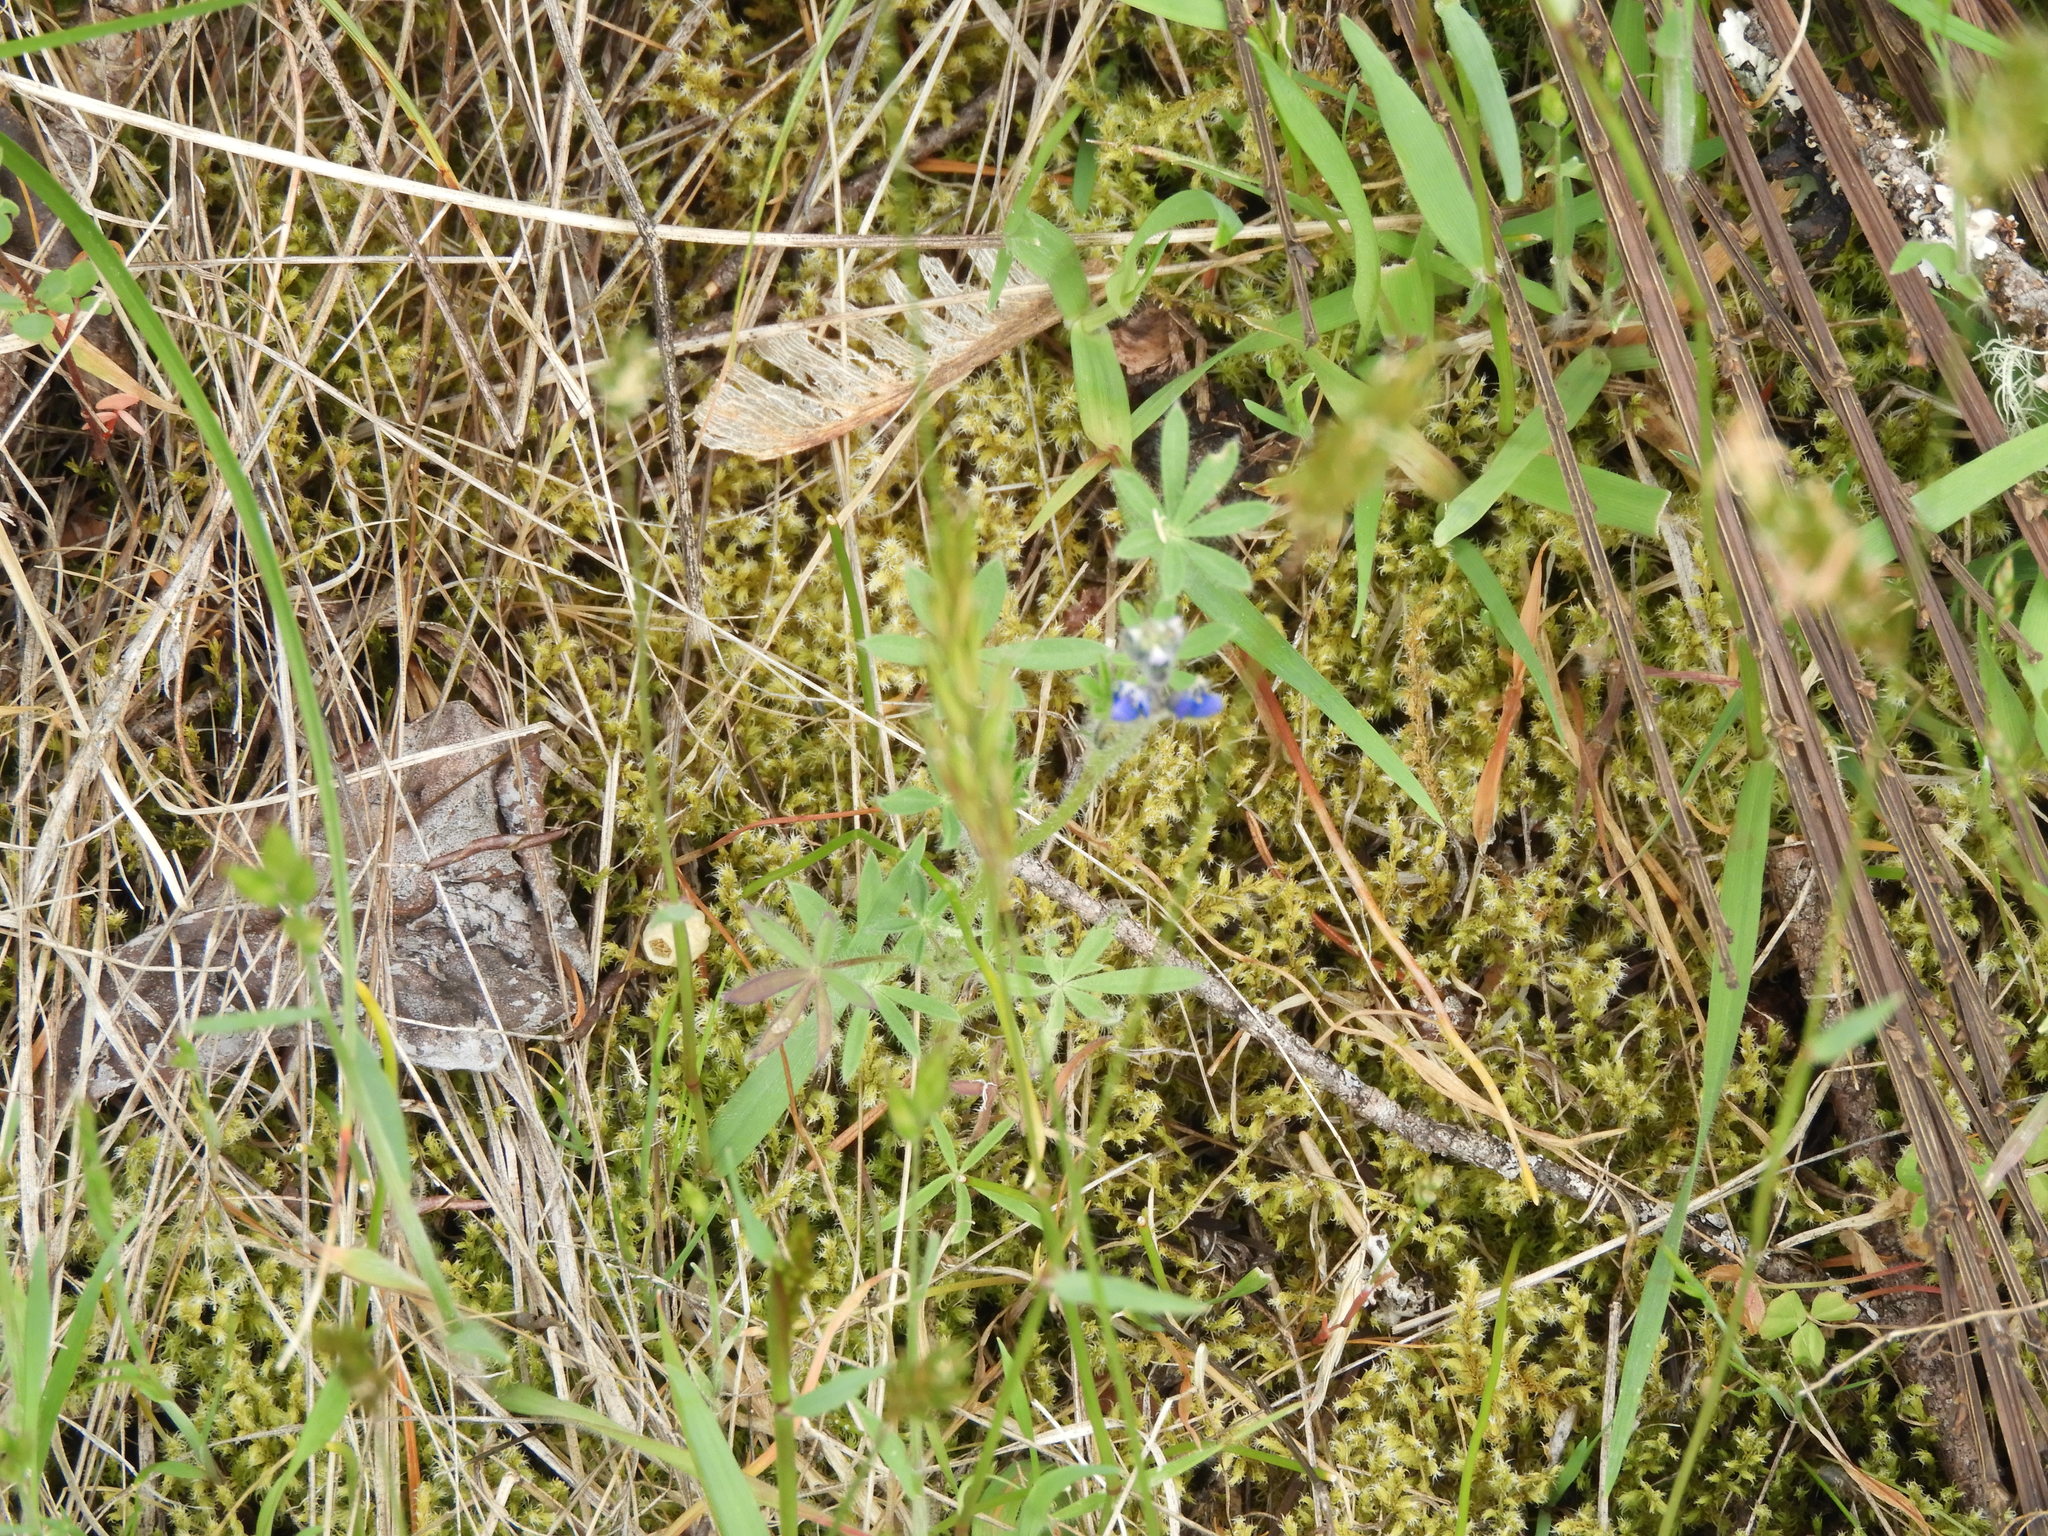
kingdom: Plantae
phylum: Tracheophyta
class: Magnoliopsida
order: Fabales
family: Fabaceae
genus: Lupinus
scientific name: Lupinus bicolor
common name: Miniature lupine
